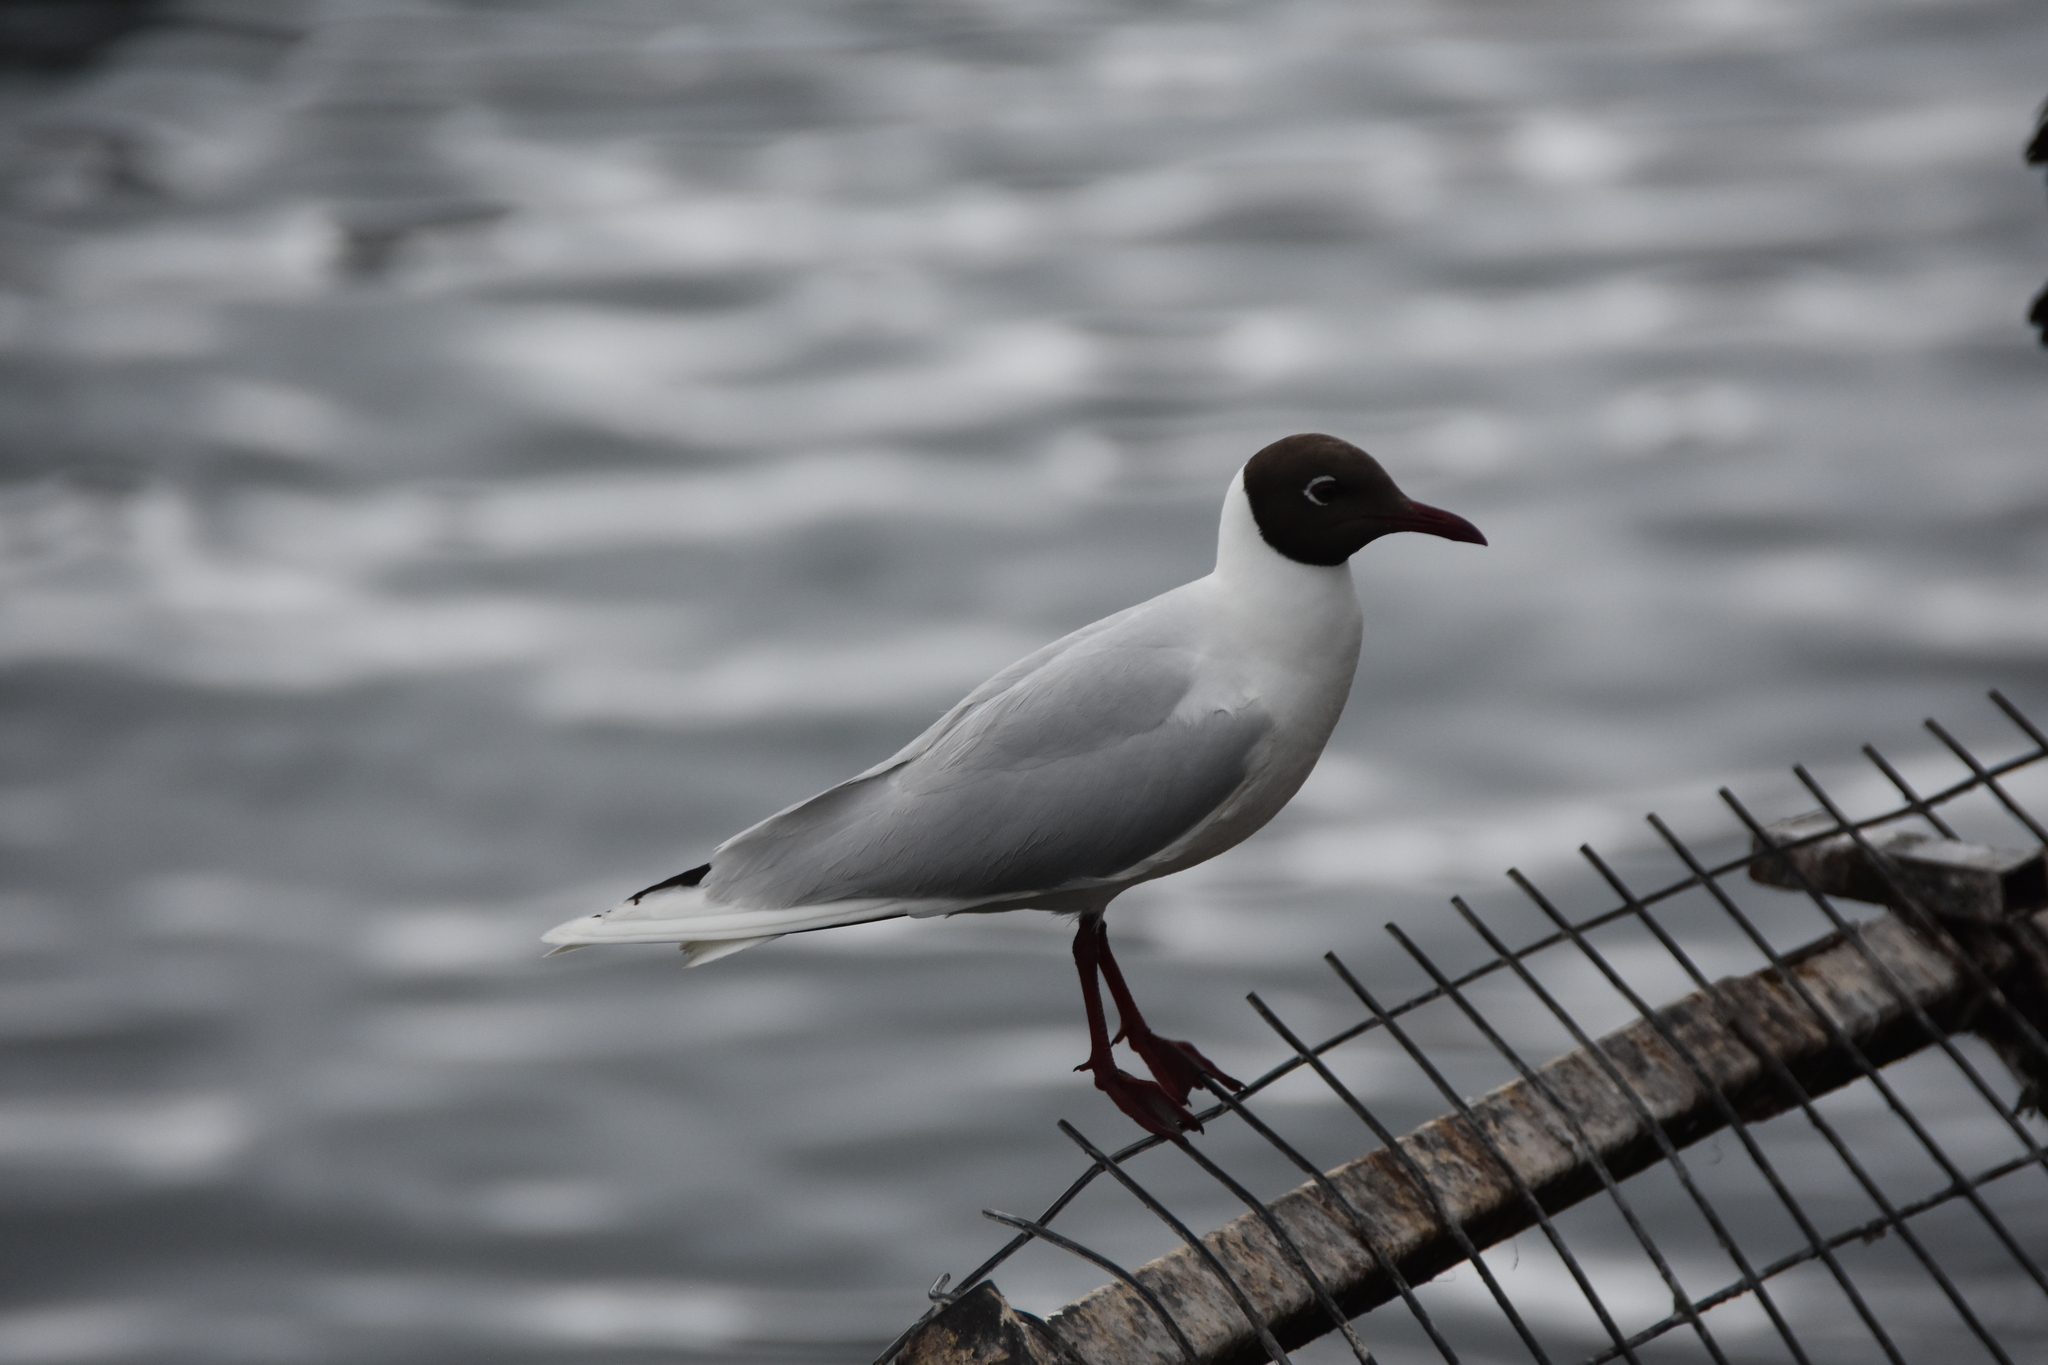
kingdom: Animalia
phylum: Chordata
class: Aves
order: Charadriiformes
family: Laridae
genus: Chroicocephalus
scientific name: Chroicocephalus maculipennis
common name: Brown-hooded gull
